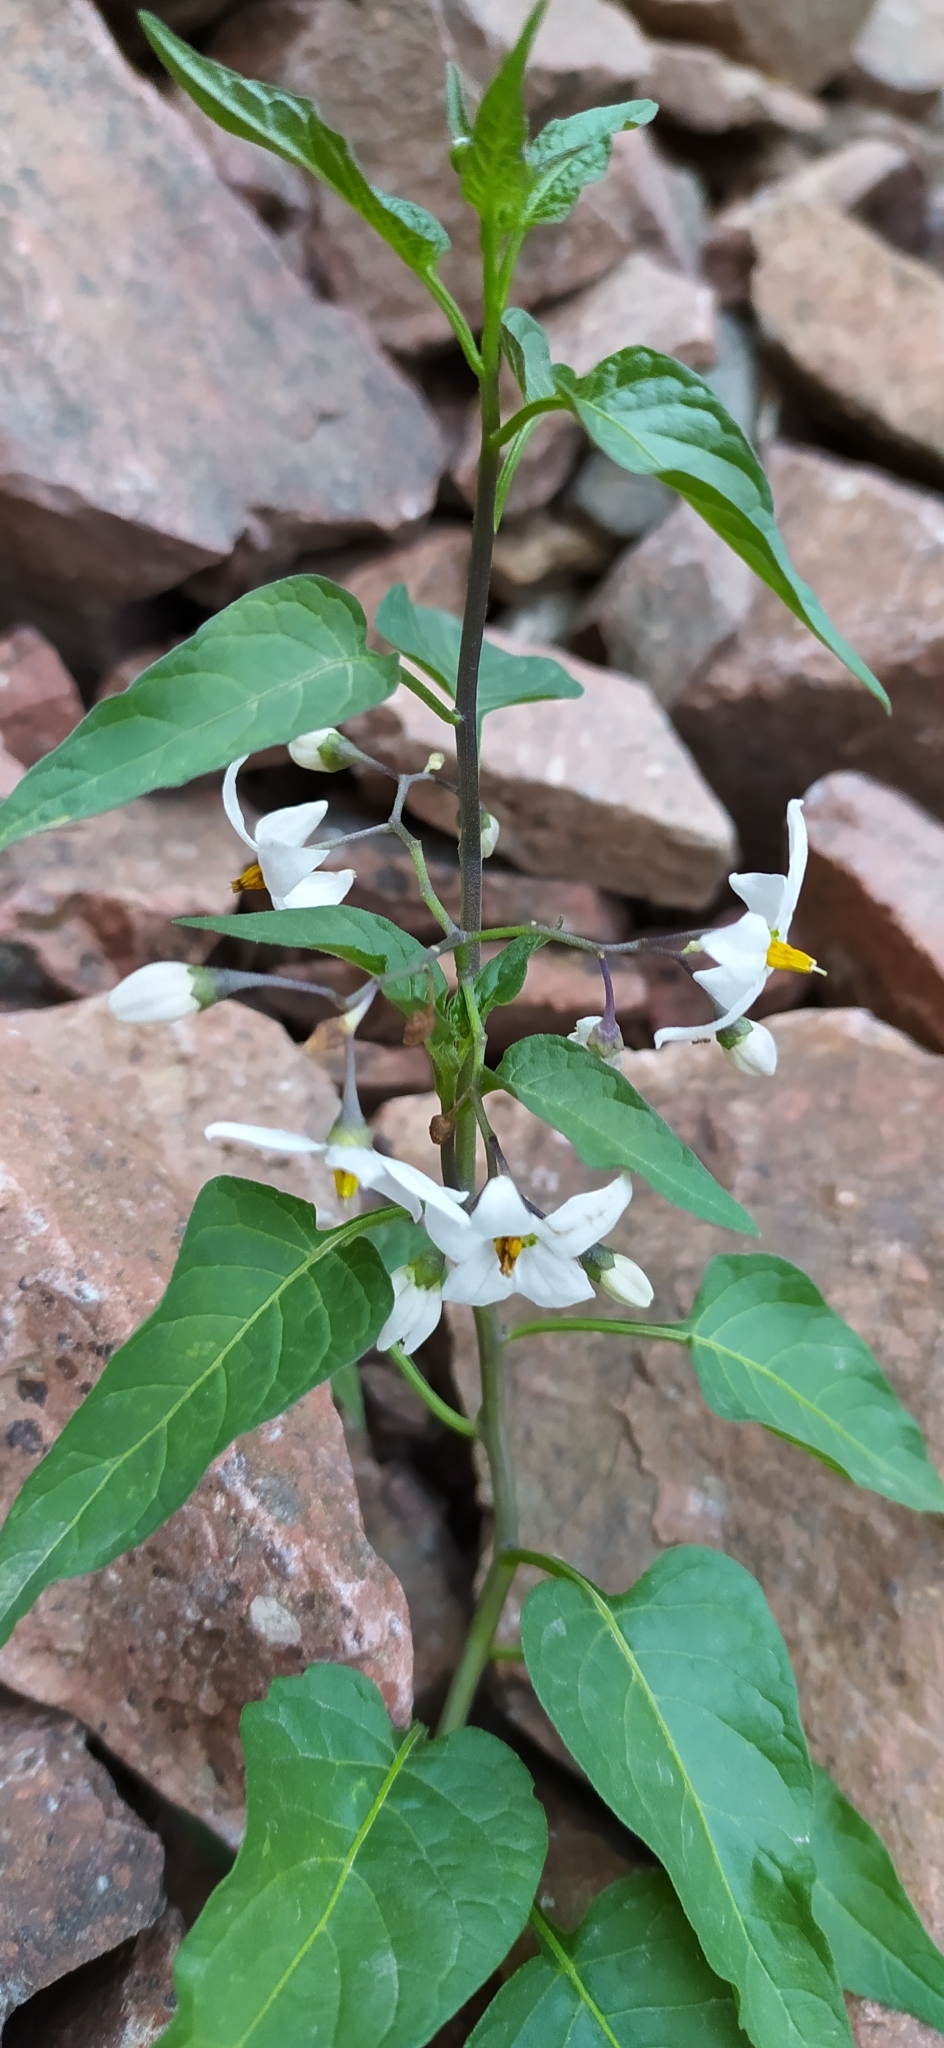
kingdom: Plantae
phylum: Tracheophyta
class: Magnoliopsida
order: Solanales
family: Solanaceae
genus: Solanum
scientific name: Solanum dulcamara
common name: Climbing nightshade
